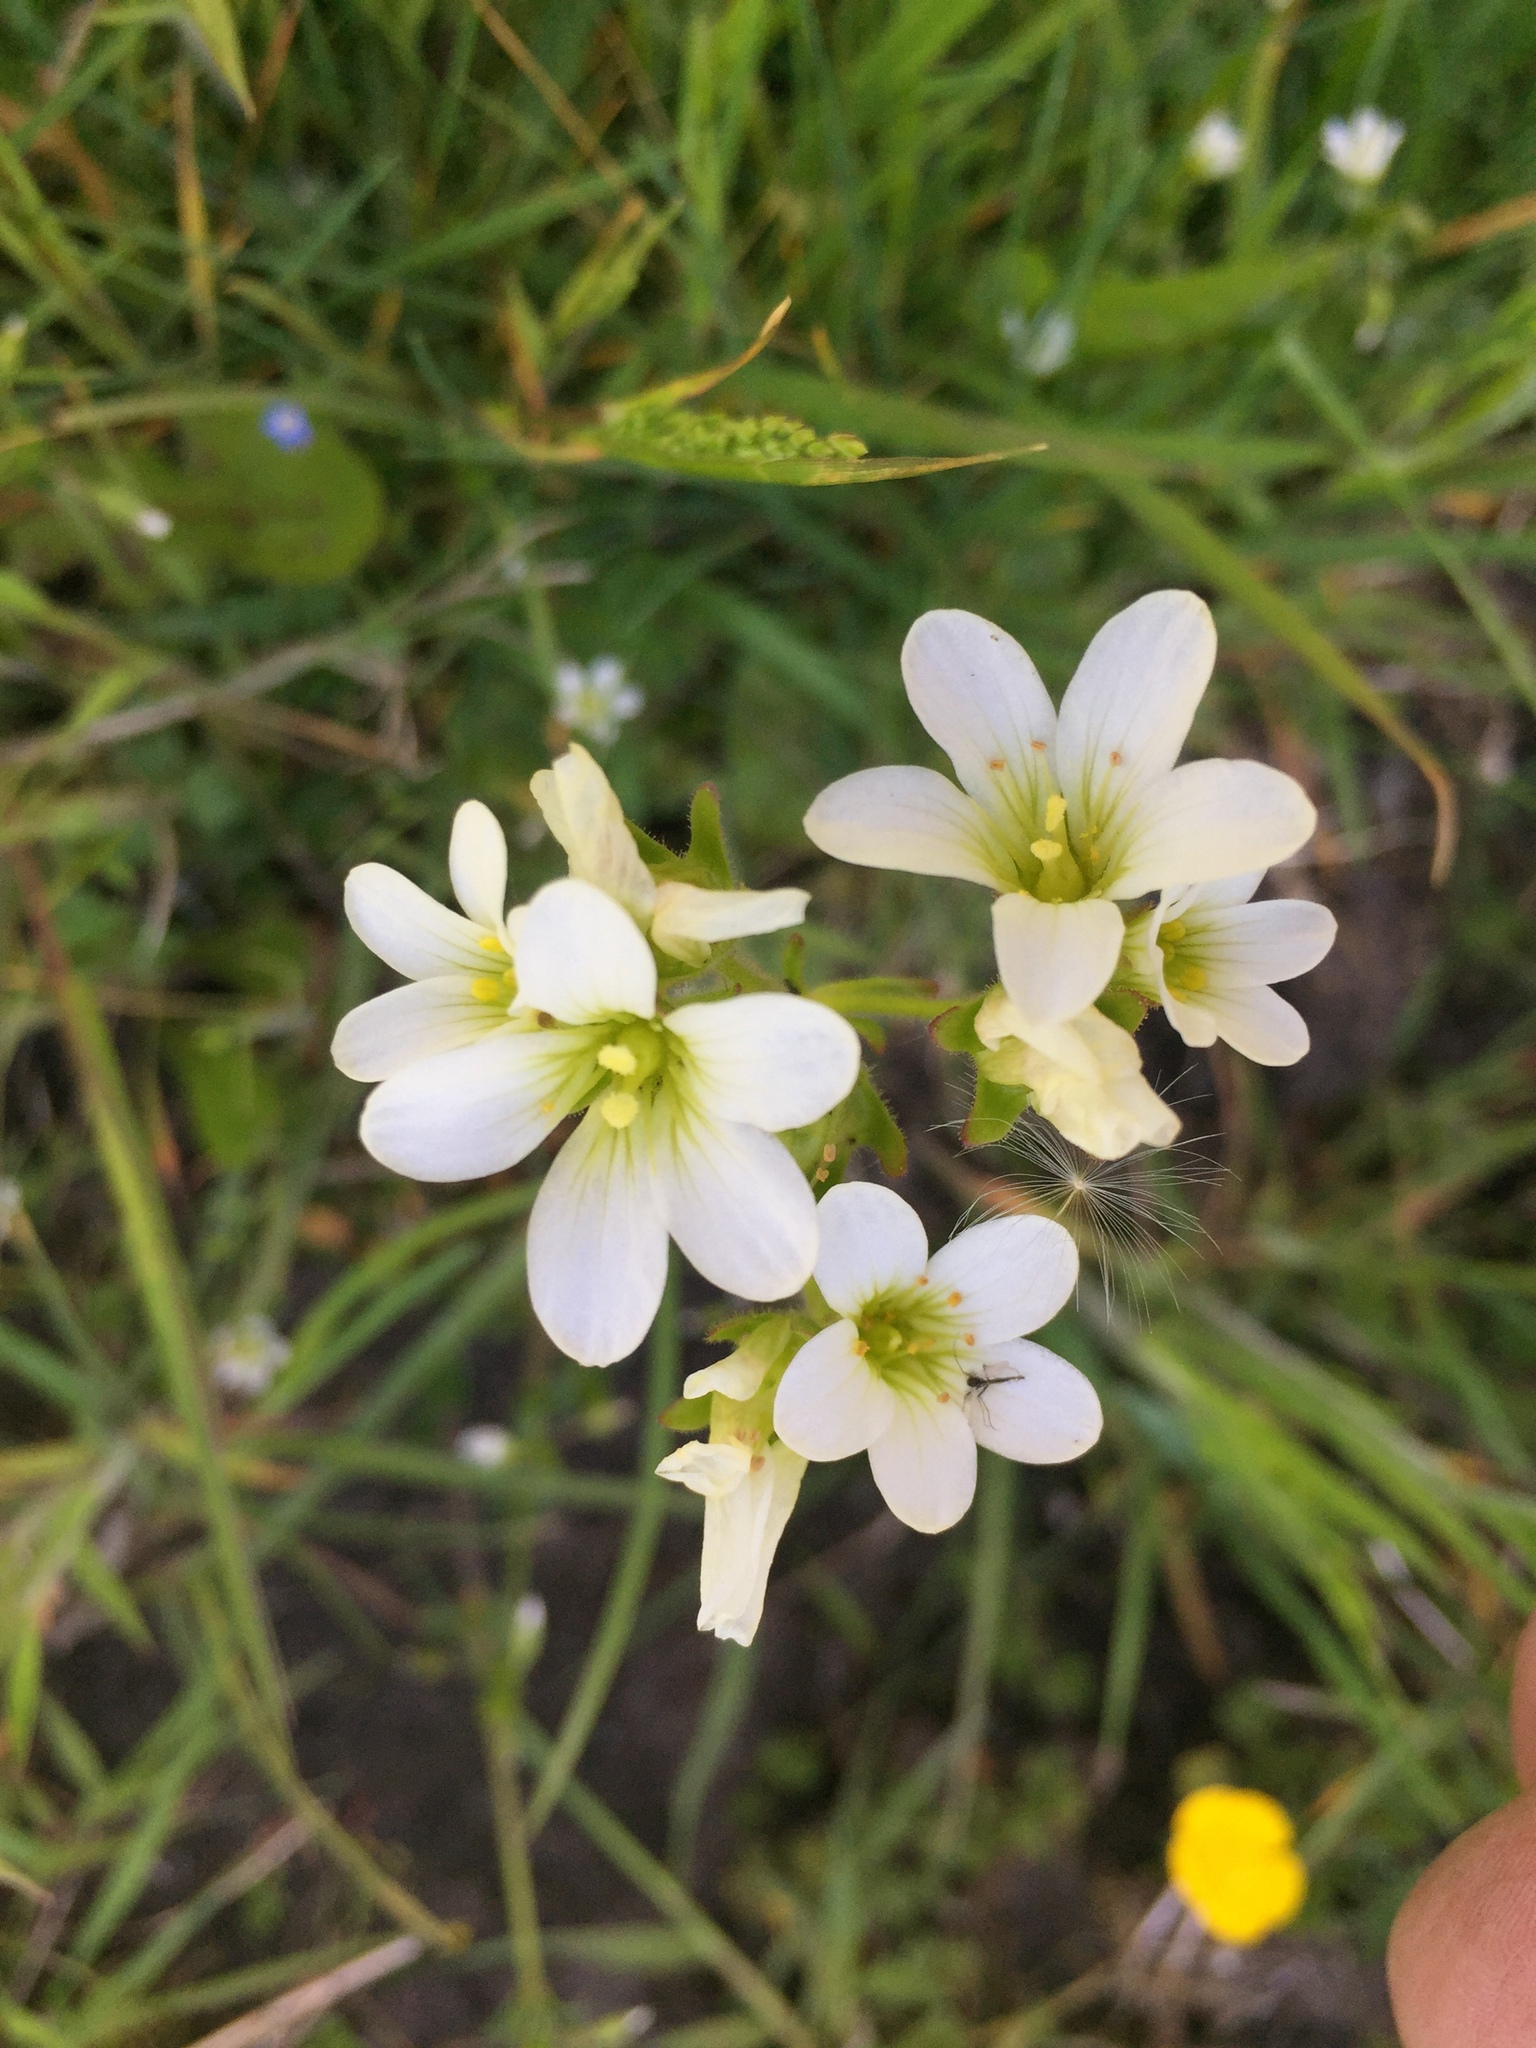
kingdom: Plantae
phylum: Tracheophyta
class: Magnoliopsida
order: Saxifragales
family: Saxifragaceae
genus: Saxifraga
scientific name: Saxifraga granulata
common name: Meadow saxifrage
